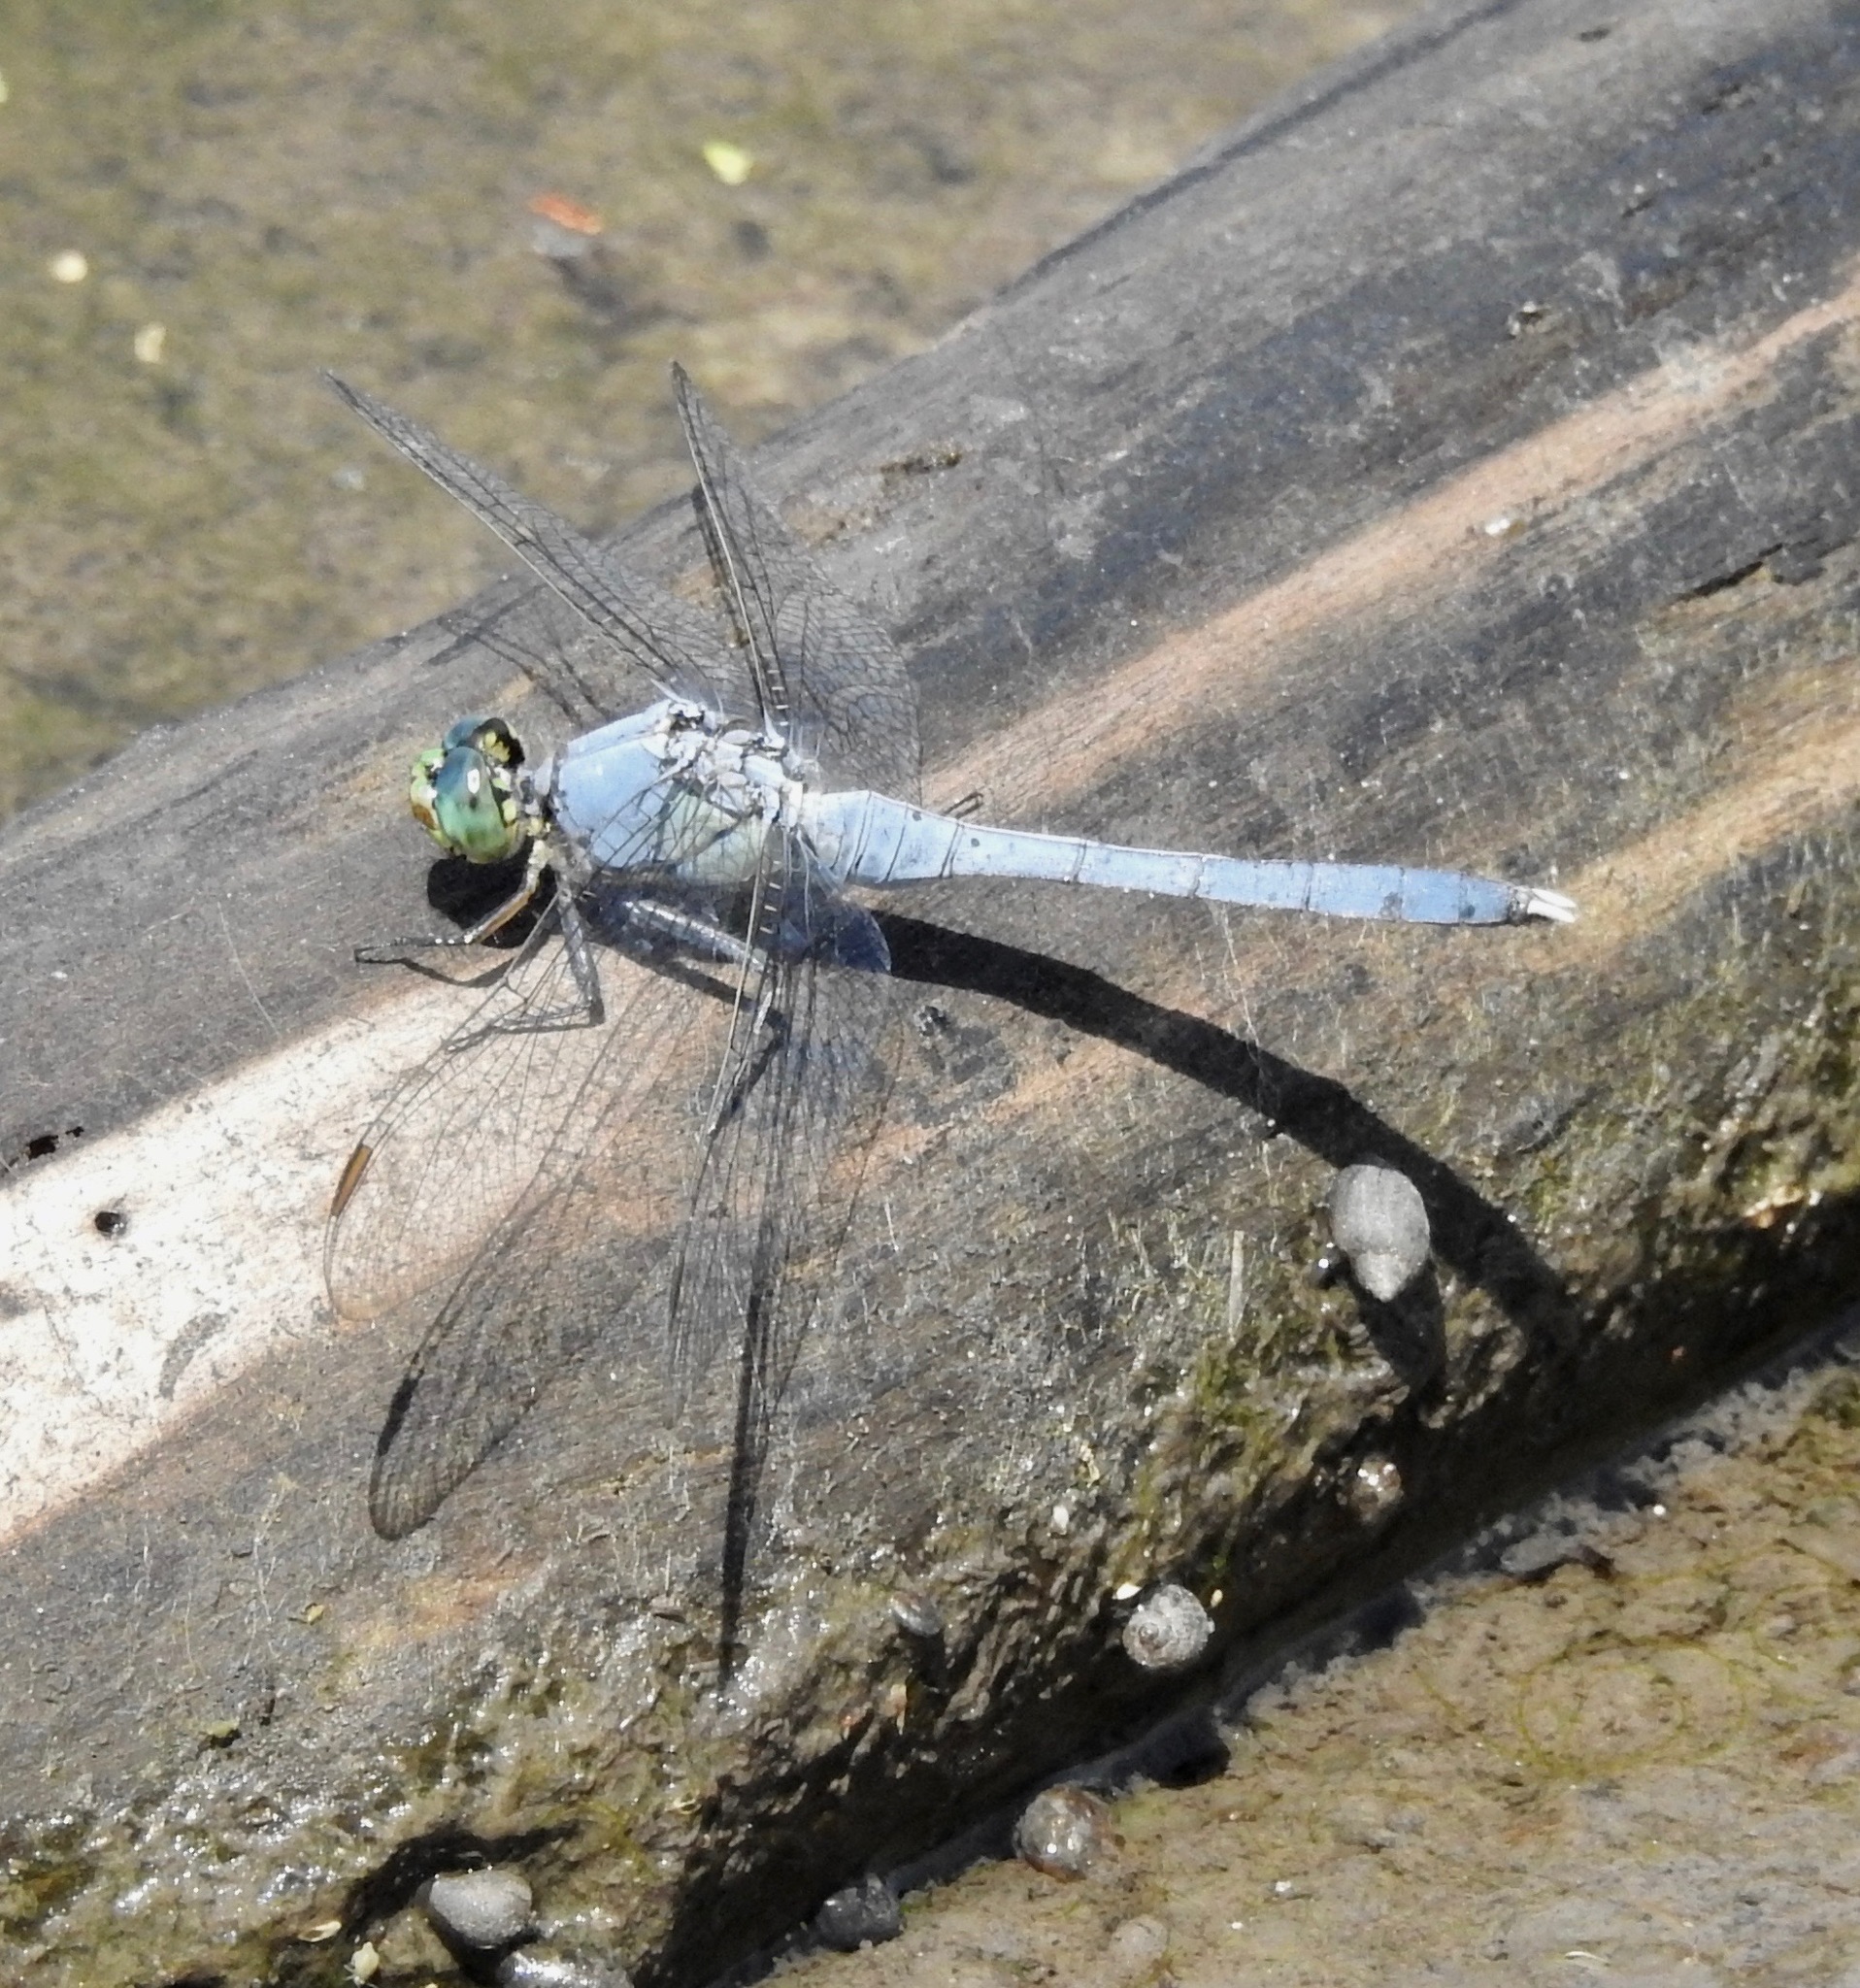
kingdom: Animalia
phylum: Arthropoda
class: Insecta
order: Odonata
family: Libellulidae
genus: Erythemis
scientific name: Erythemis simplicicollis
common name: Eastern pondhawk
